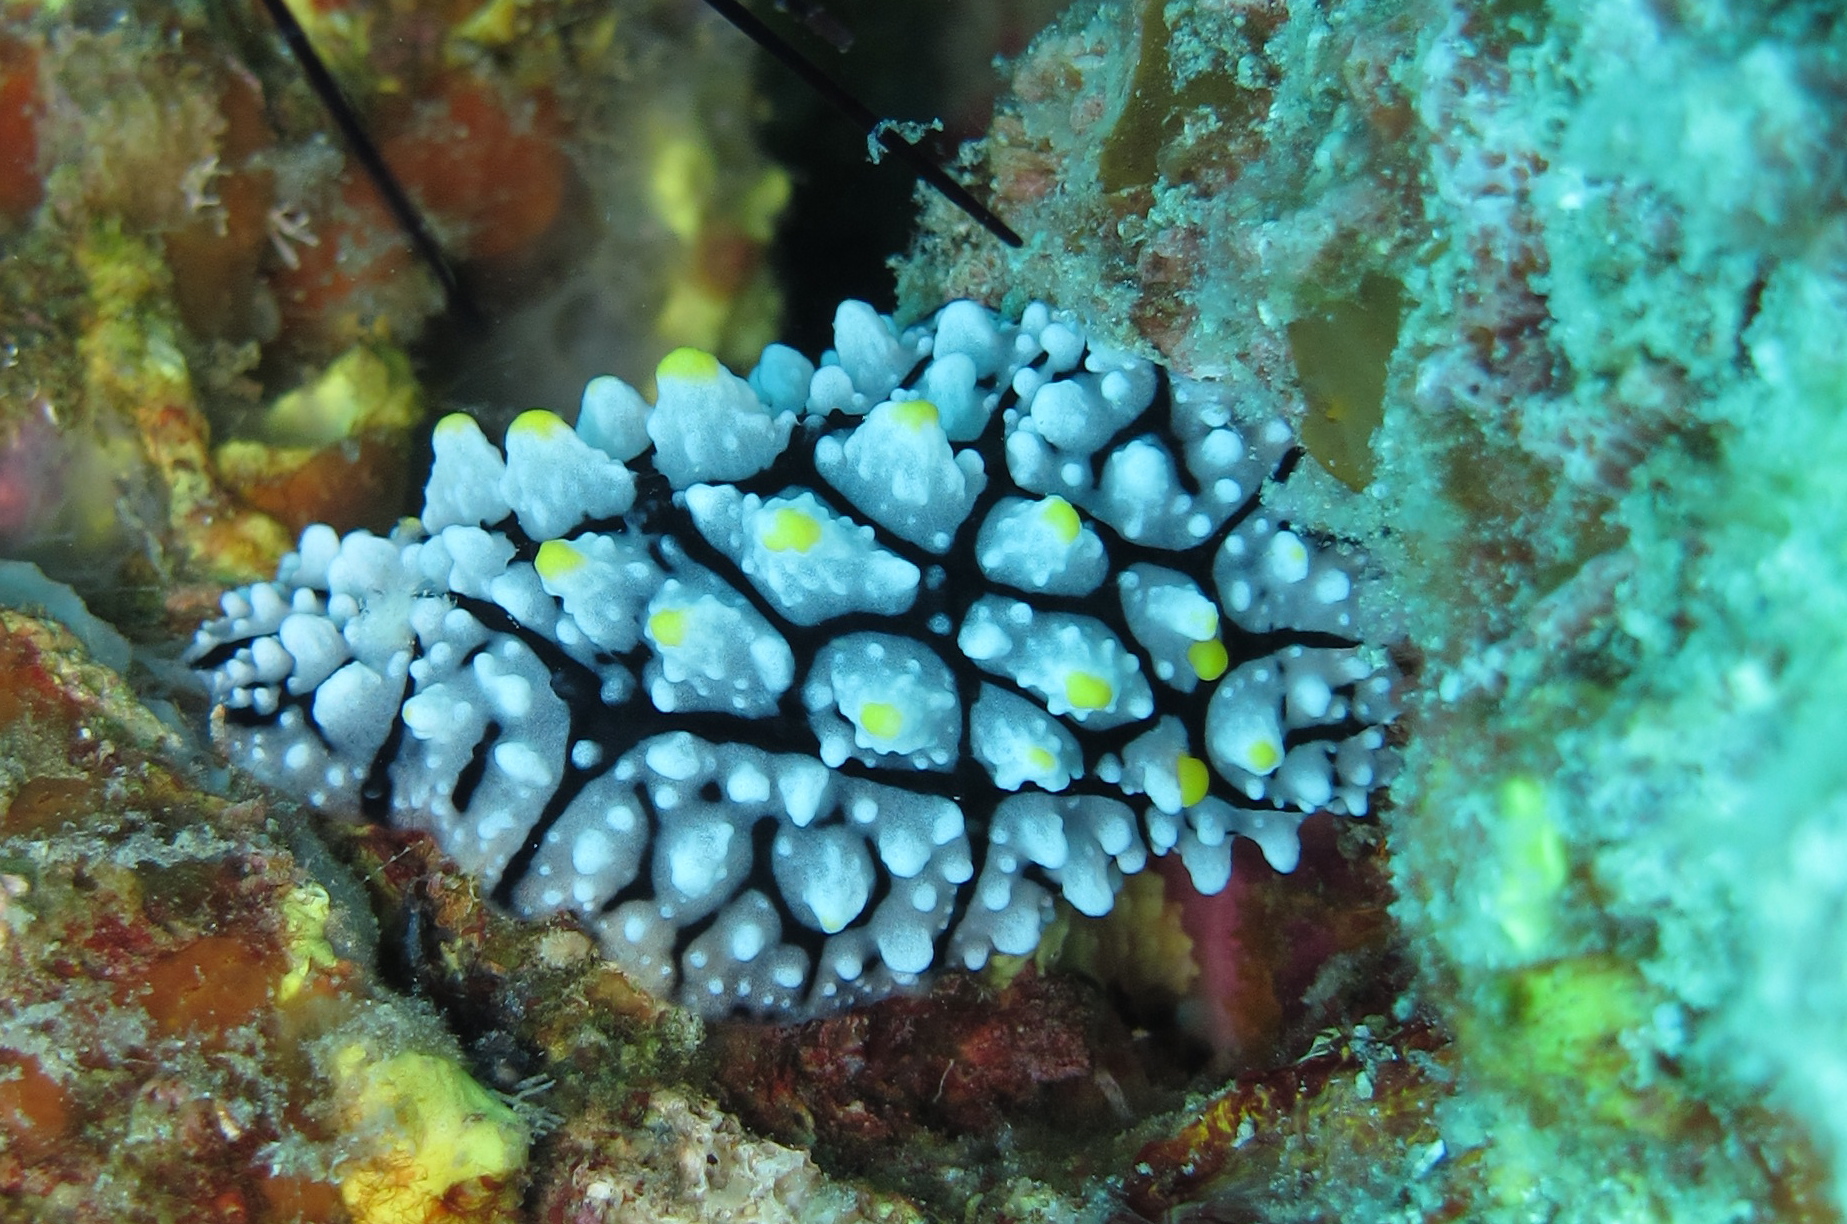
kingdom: Animalia
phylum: Mollusca
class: Gastropoda
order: Nudibranchia
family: Phyllidiidae
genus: Phyllidia
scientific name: Phyllidia elegans
